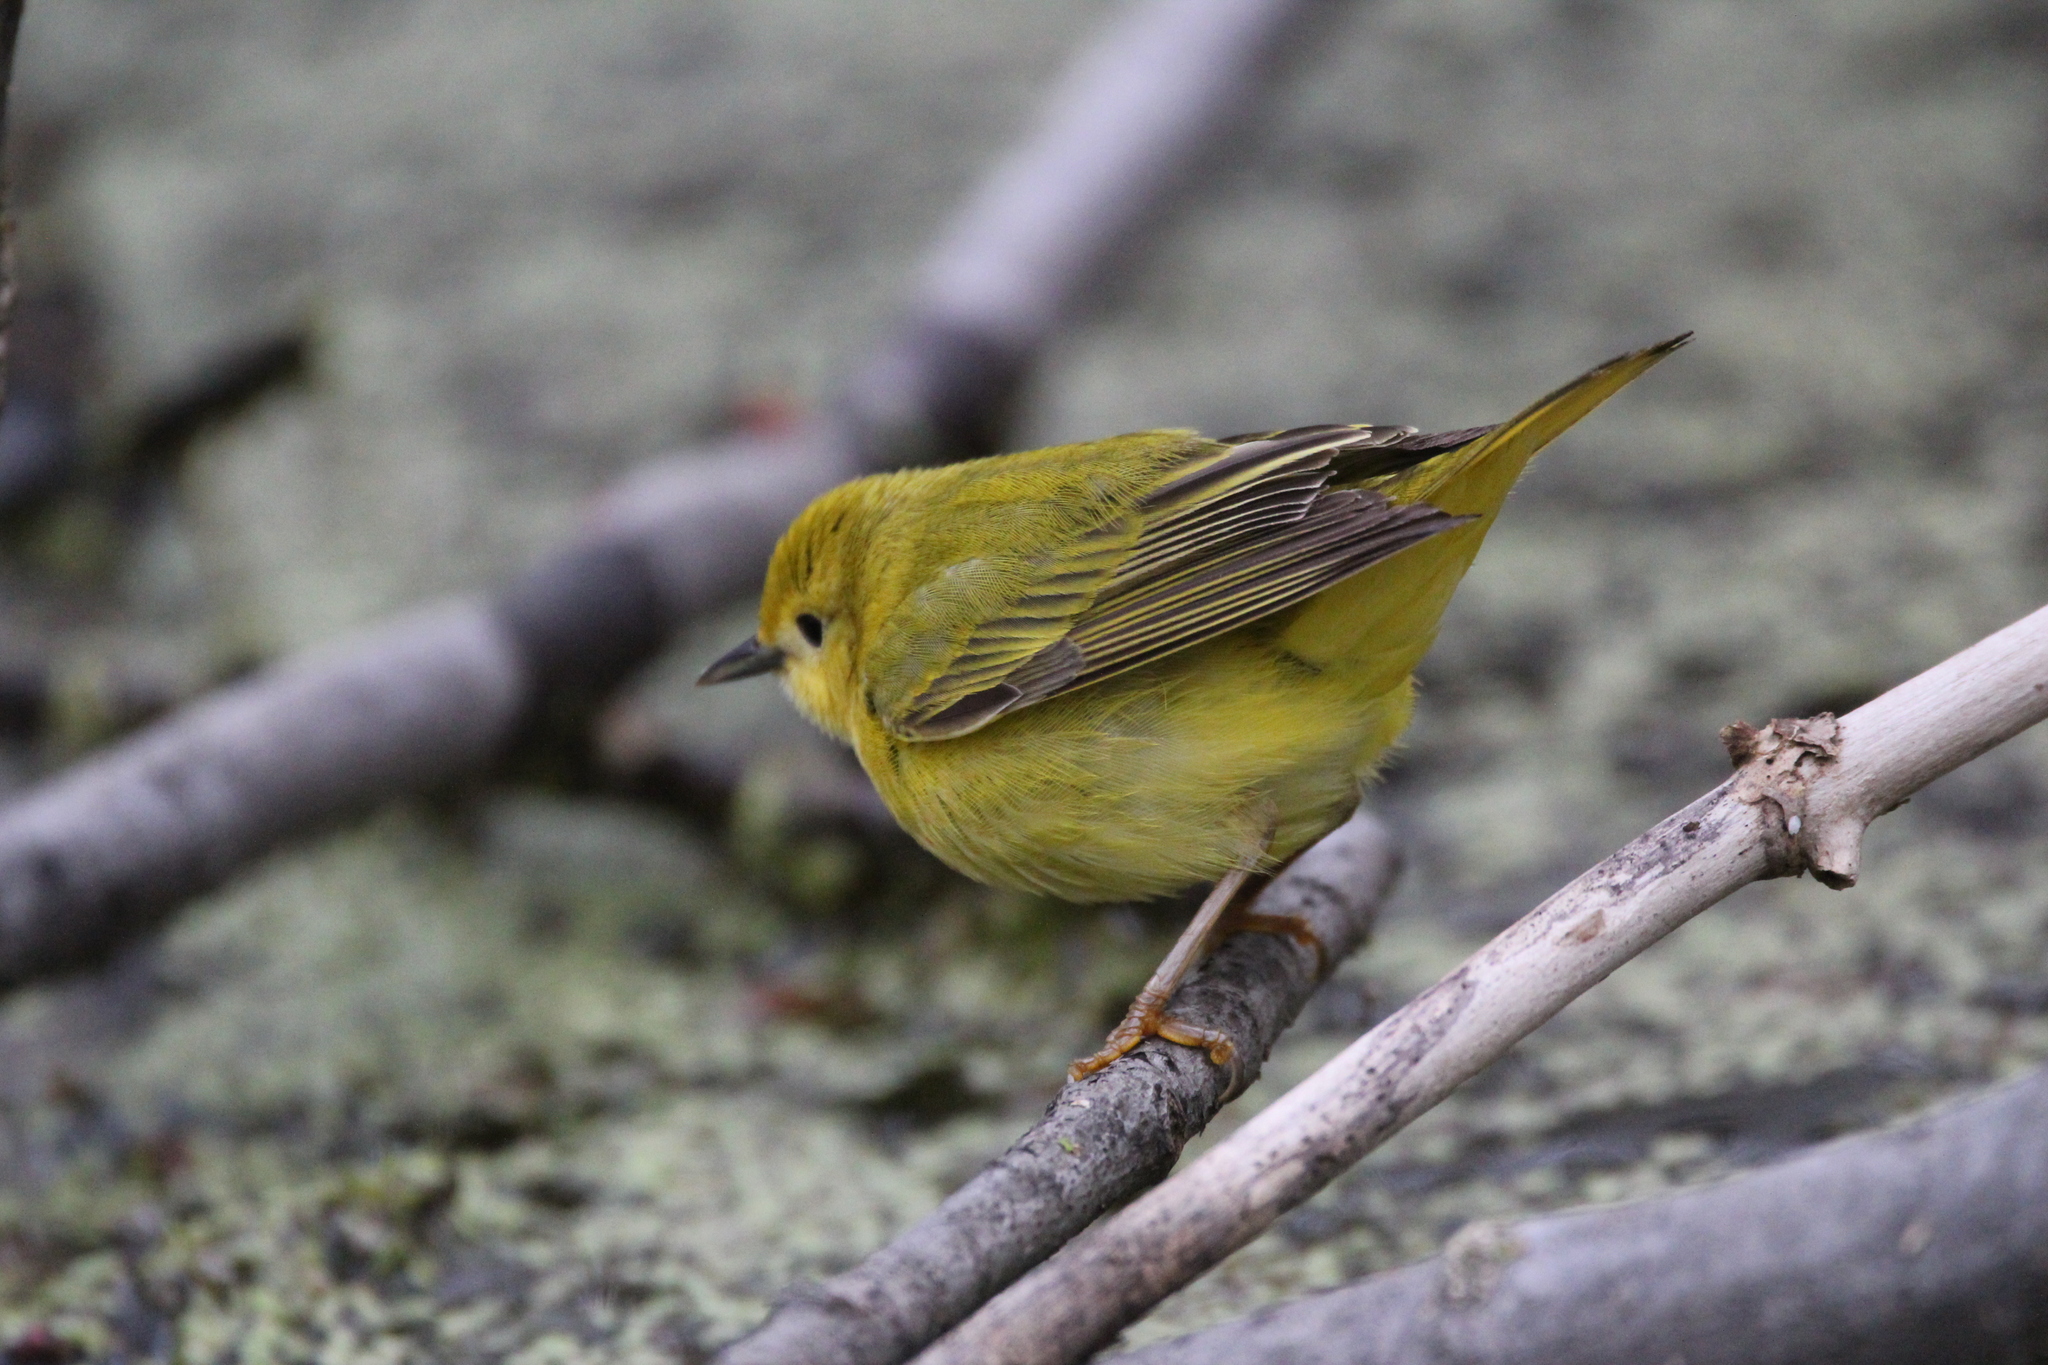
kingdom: Animalia
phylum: Chordata
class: Aves
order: Passeriformes
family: Parulidae
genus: Setophaga
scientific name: Setophaga petechia
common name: Yellow warbler
